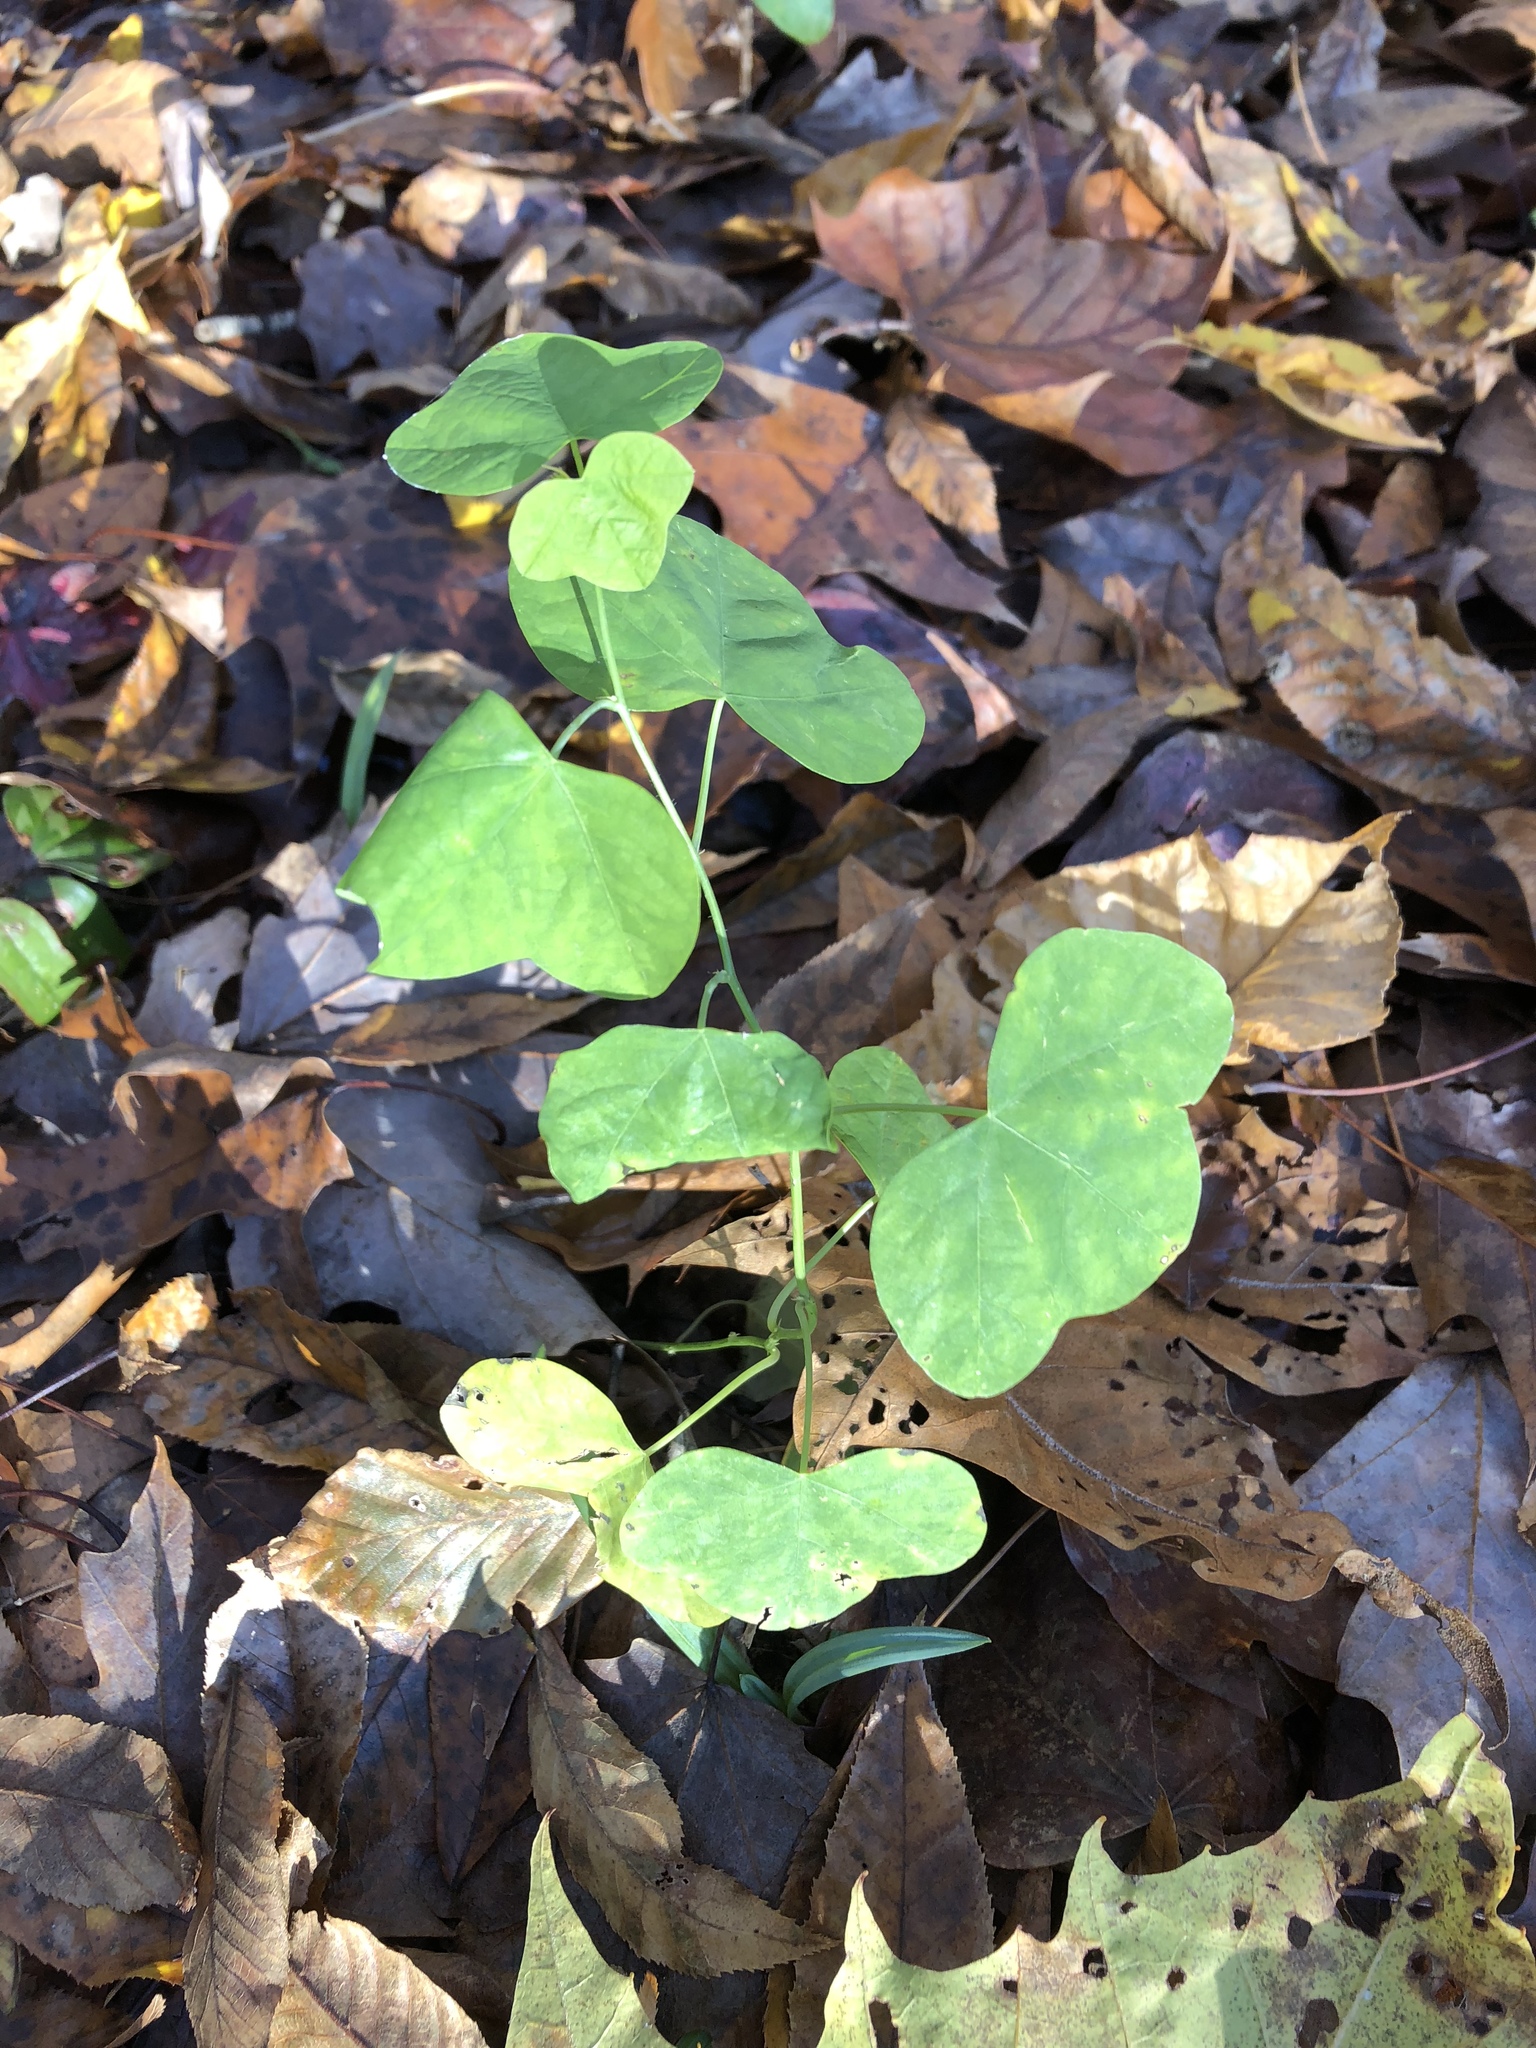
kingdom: Plantae
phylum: Tracheophyta
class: Magnoliopsida
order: Malpighiales
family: Passifloraceae
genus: Passiflora
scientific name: Passiflora lutea
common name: Yellow passionflower
